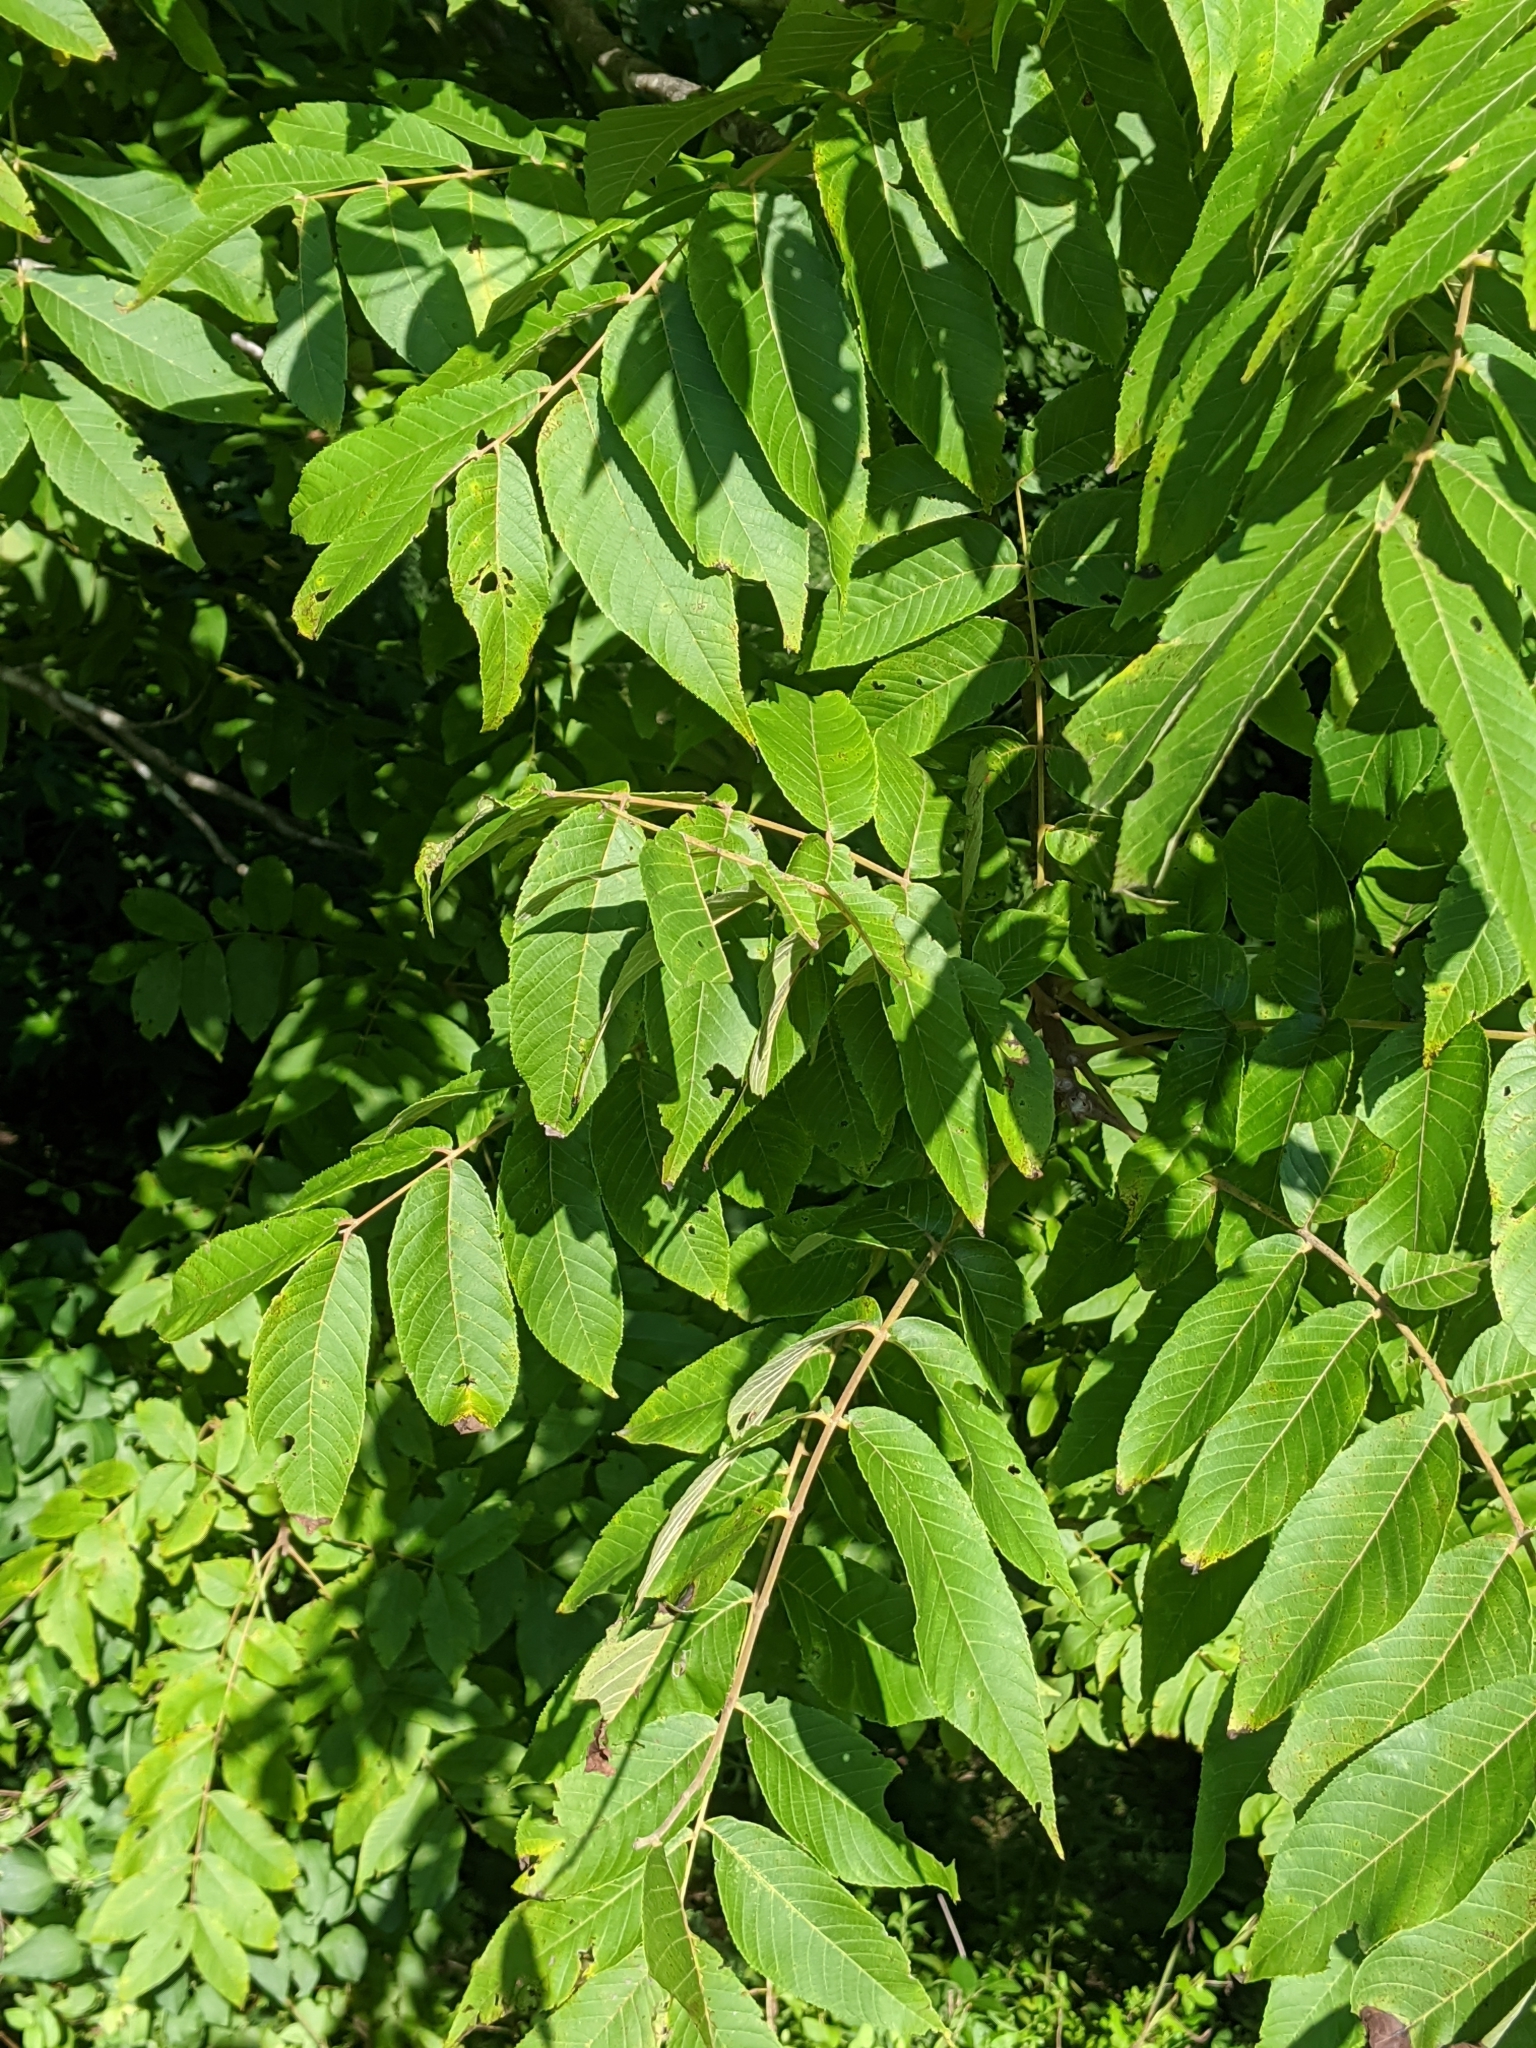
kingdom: Plantae
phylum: Tracheophyta
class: Magnoliopsida
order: Fagales
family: Juglandaceae
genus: Juglans
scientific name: Juglans nigra
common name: Black walnut
